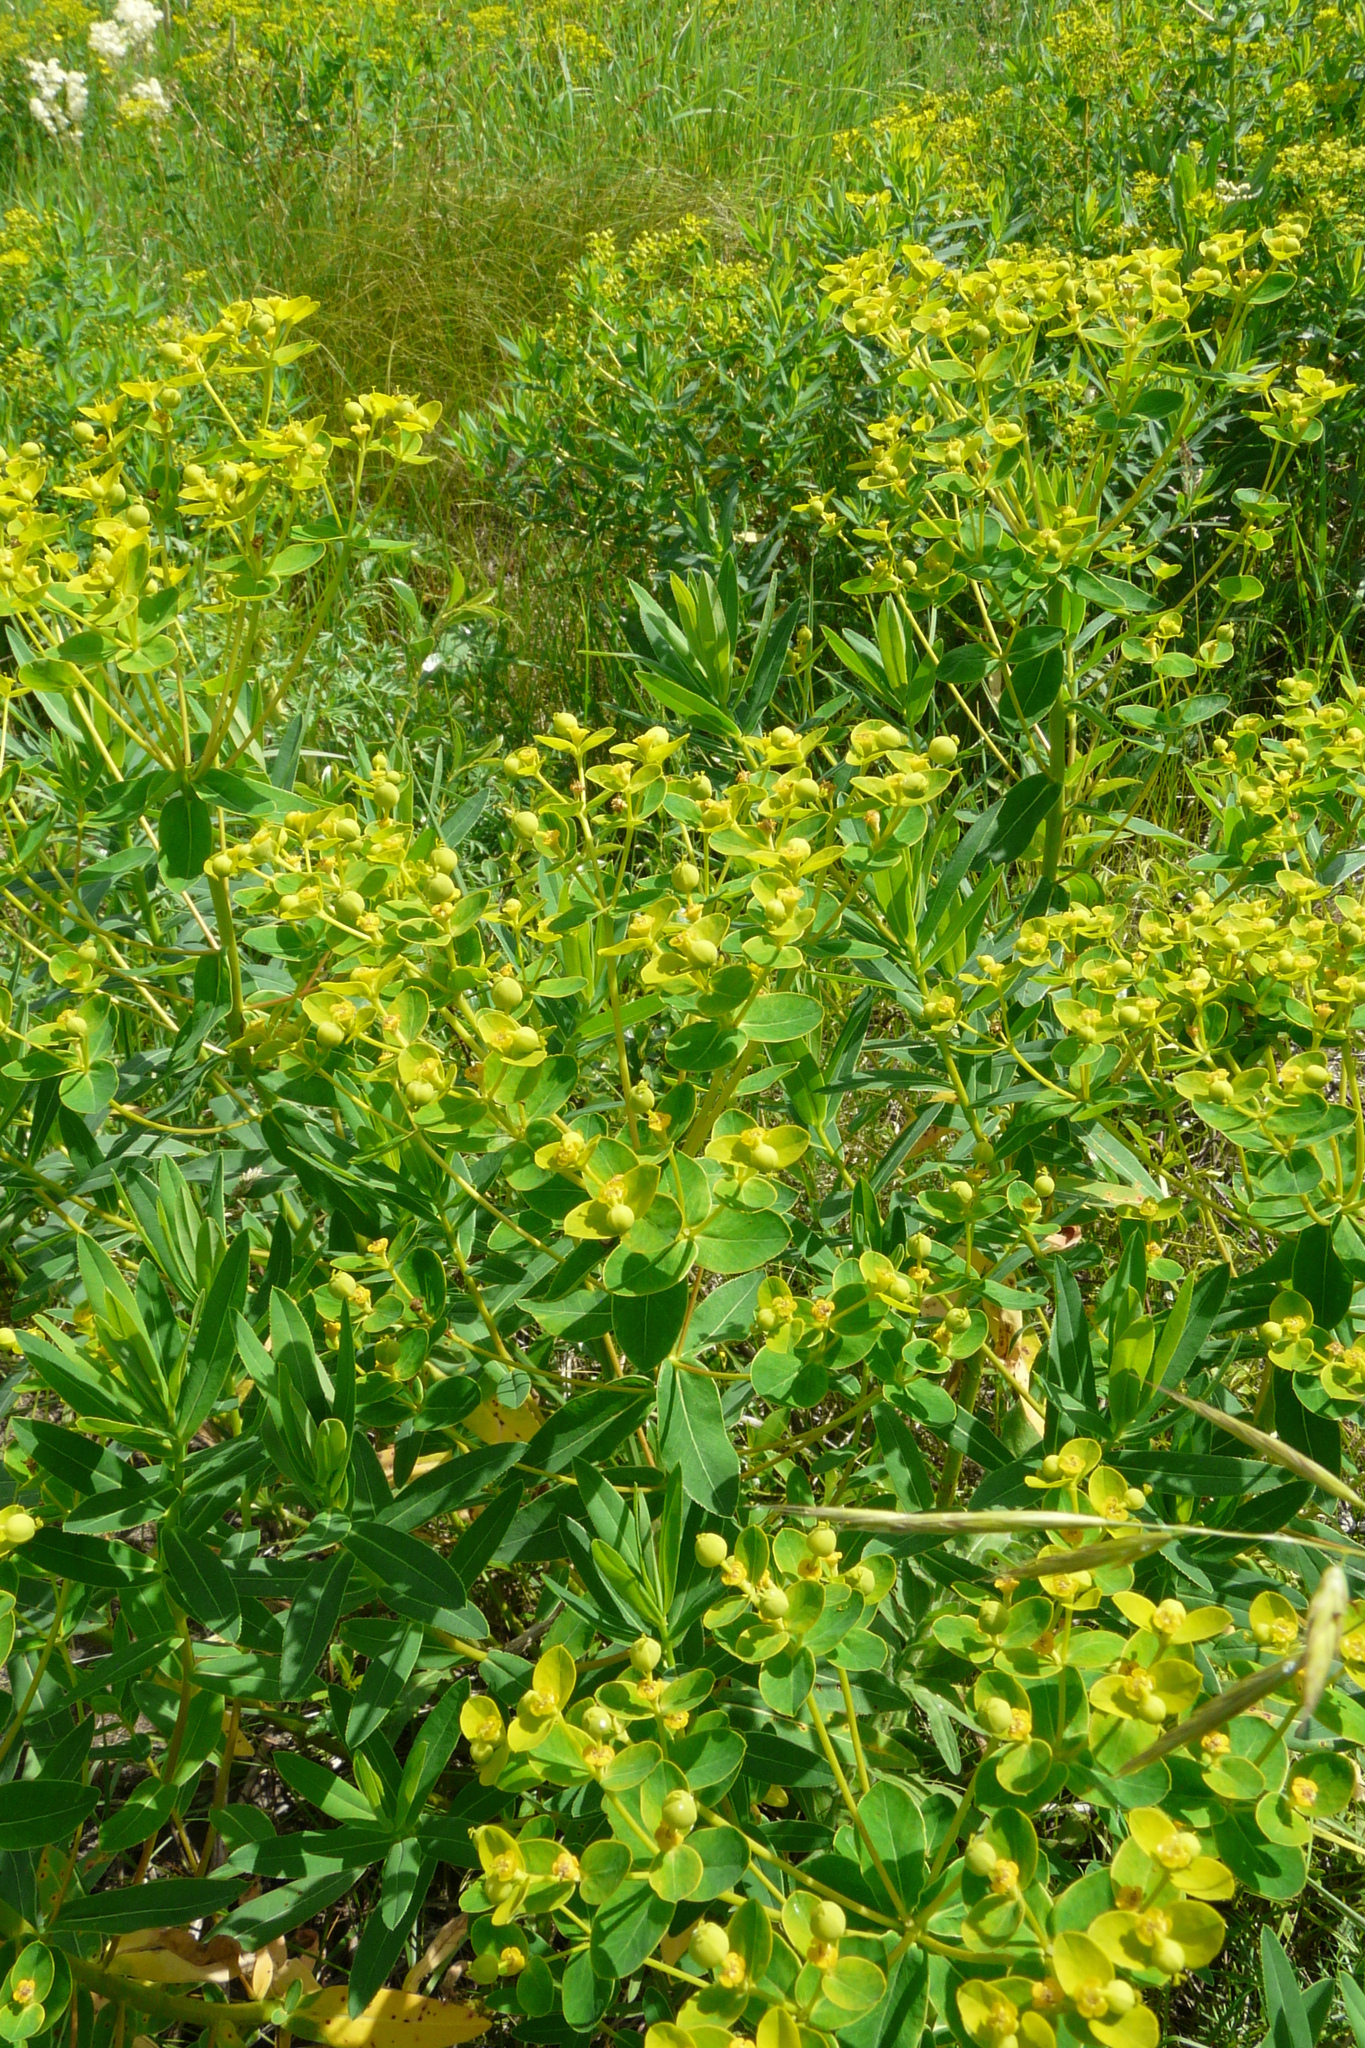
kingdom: Plantae
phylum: Tracheophyta
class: Magnoliopsida
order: Malpighiales
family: Euphorbiaceae
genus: Euphorbia
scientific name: Euphorbia semivillosa
